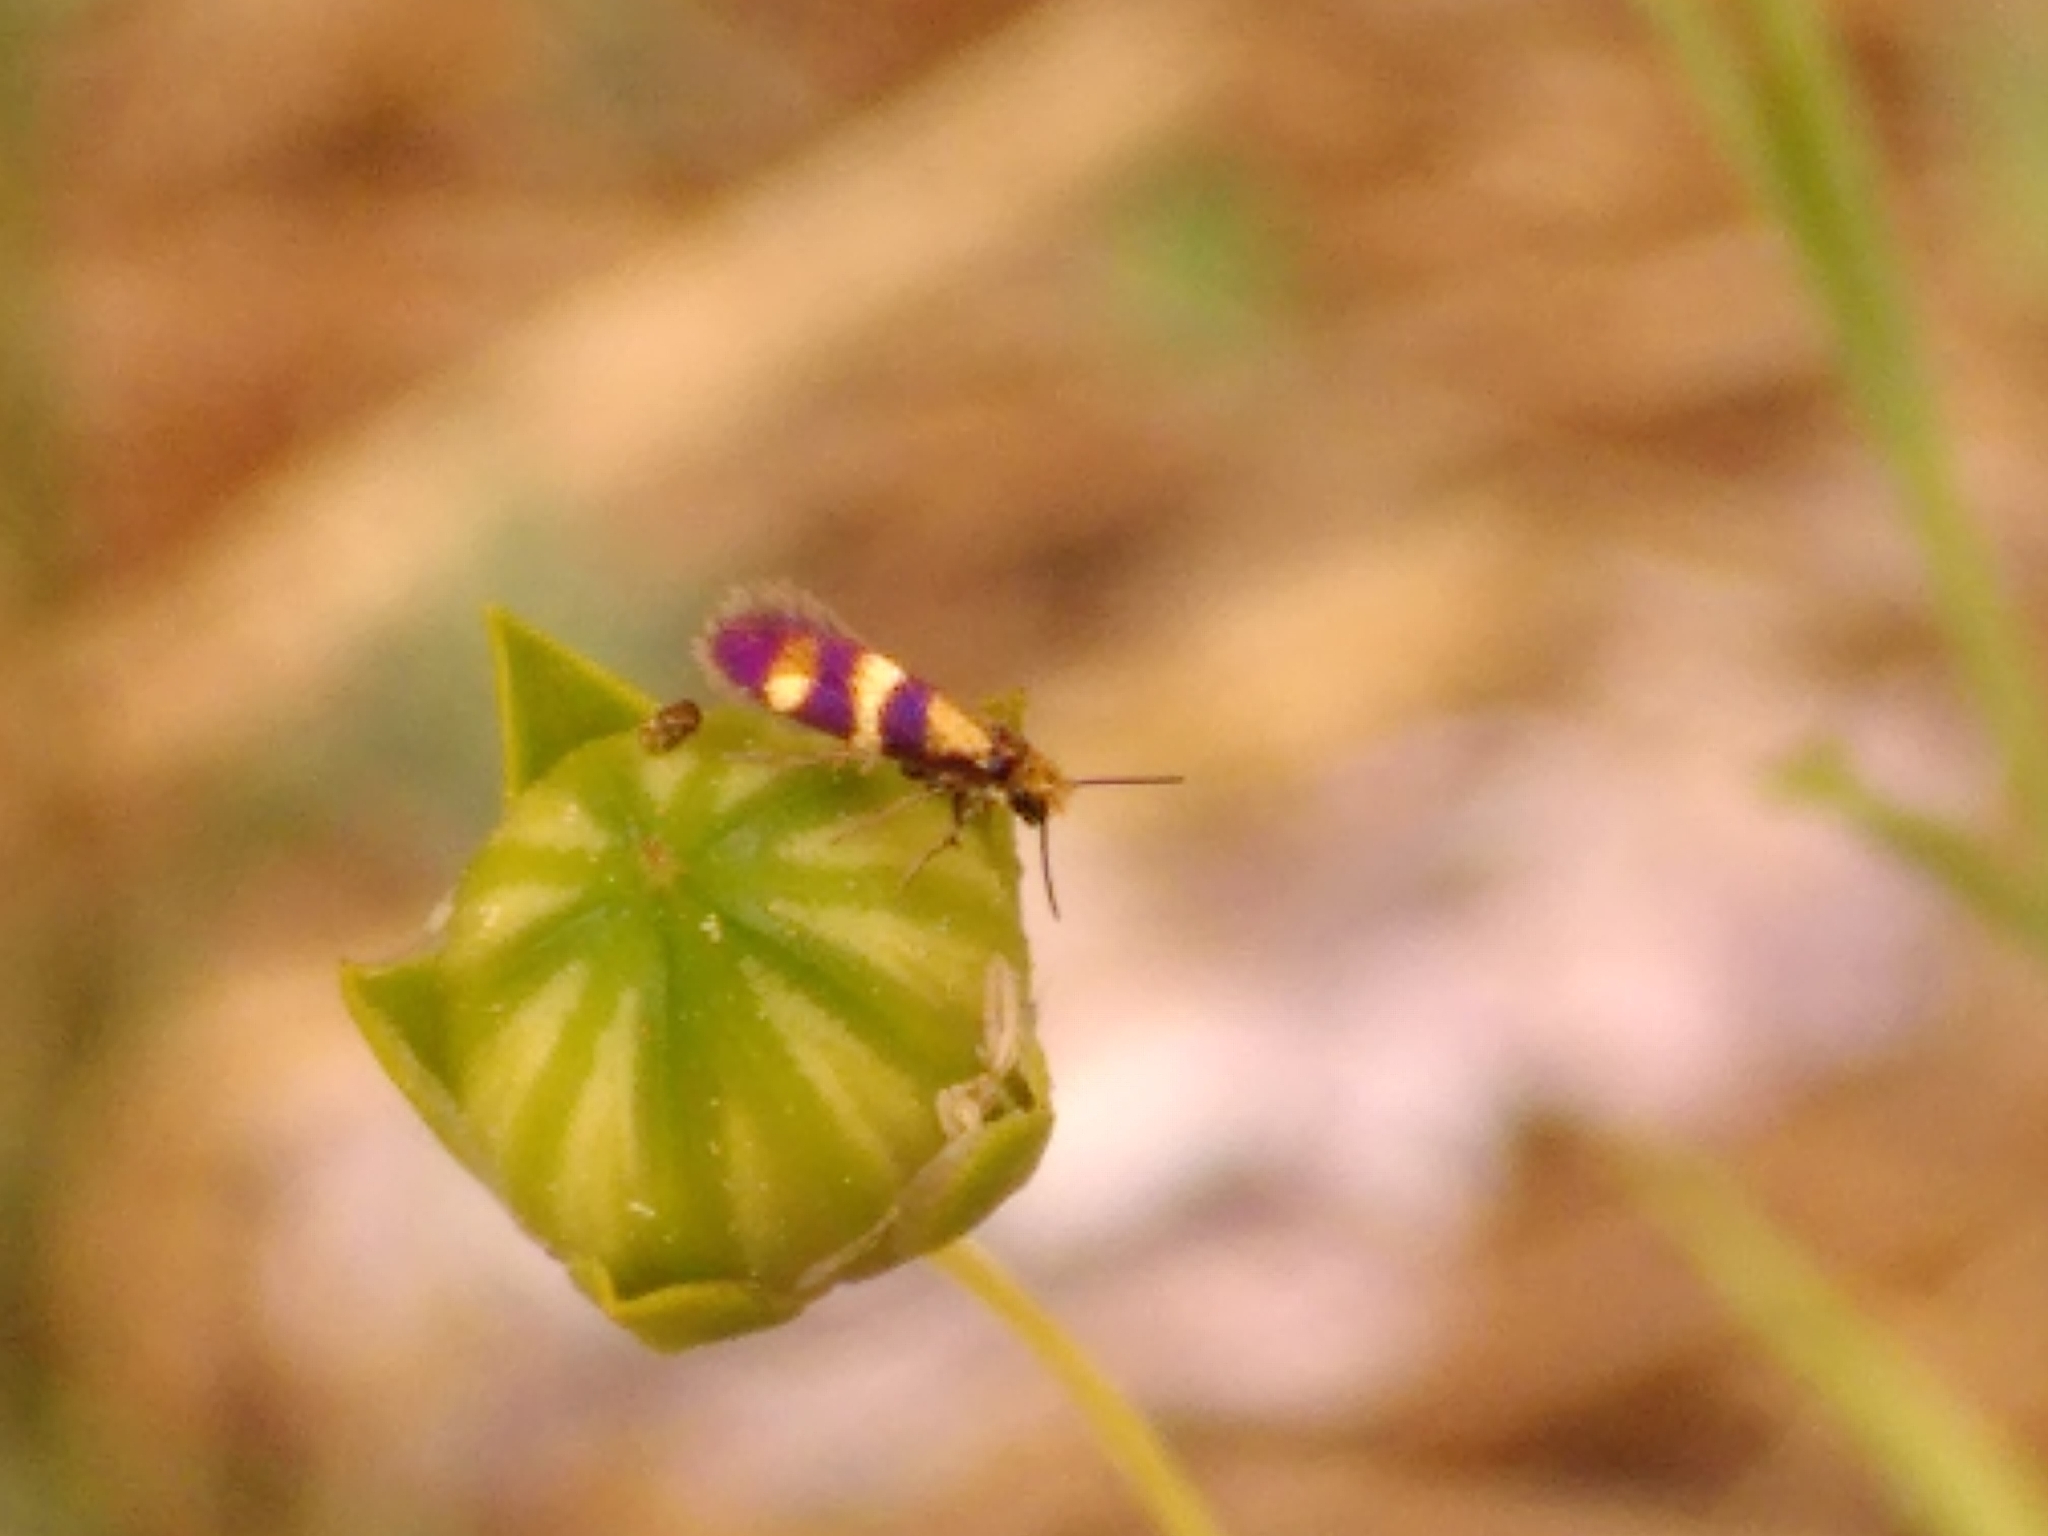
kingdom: Animalia
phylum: Arthropoda
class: Insecta
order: Lepidoptera
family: Micropterigidae
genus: Micropterix
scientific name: Micropterix aglaella
